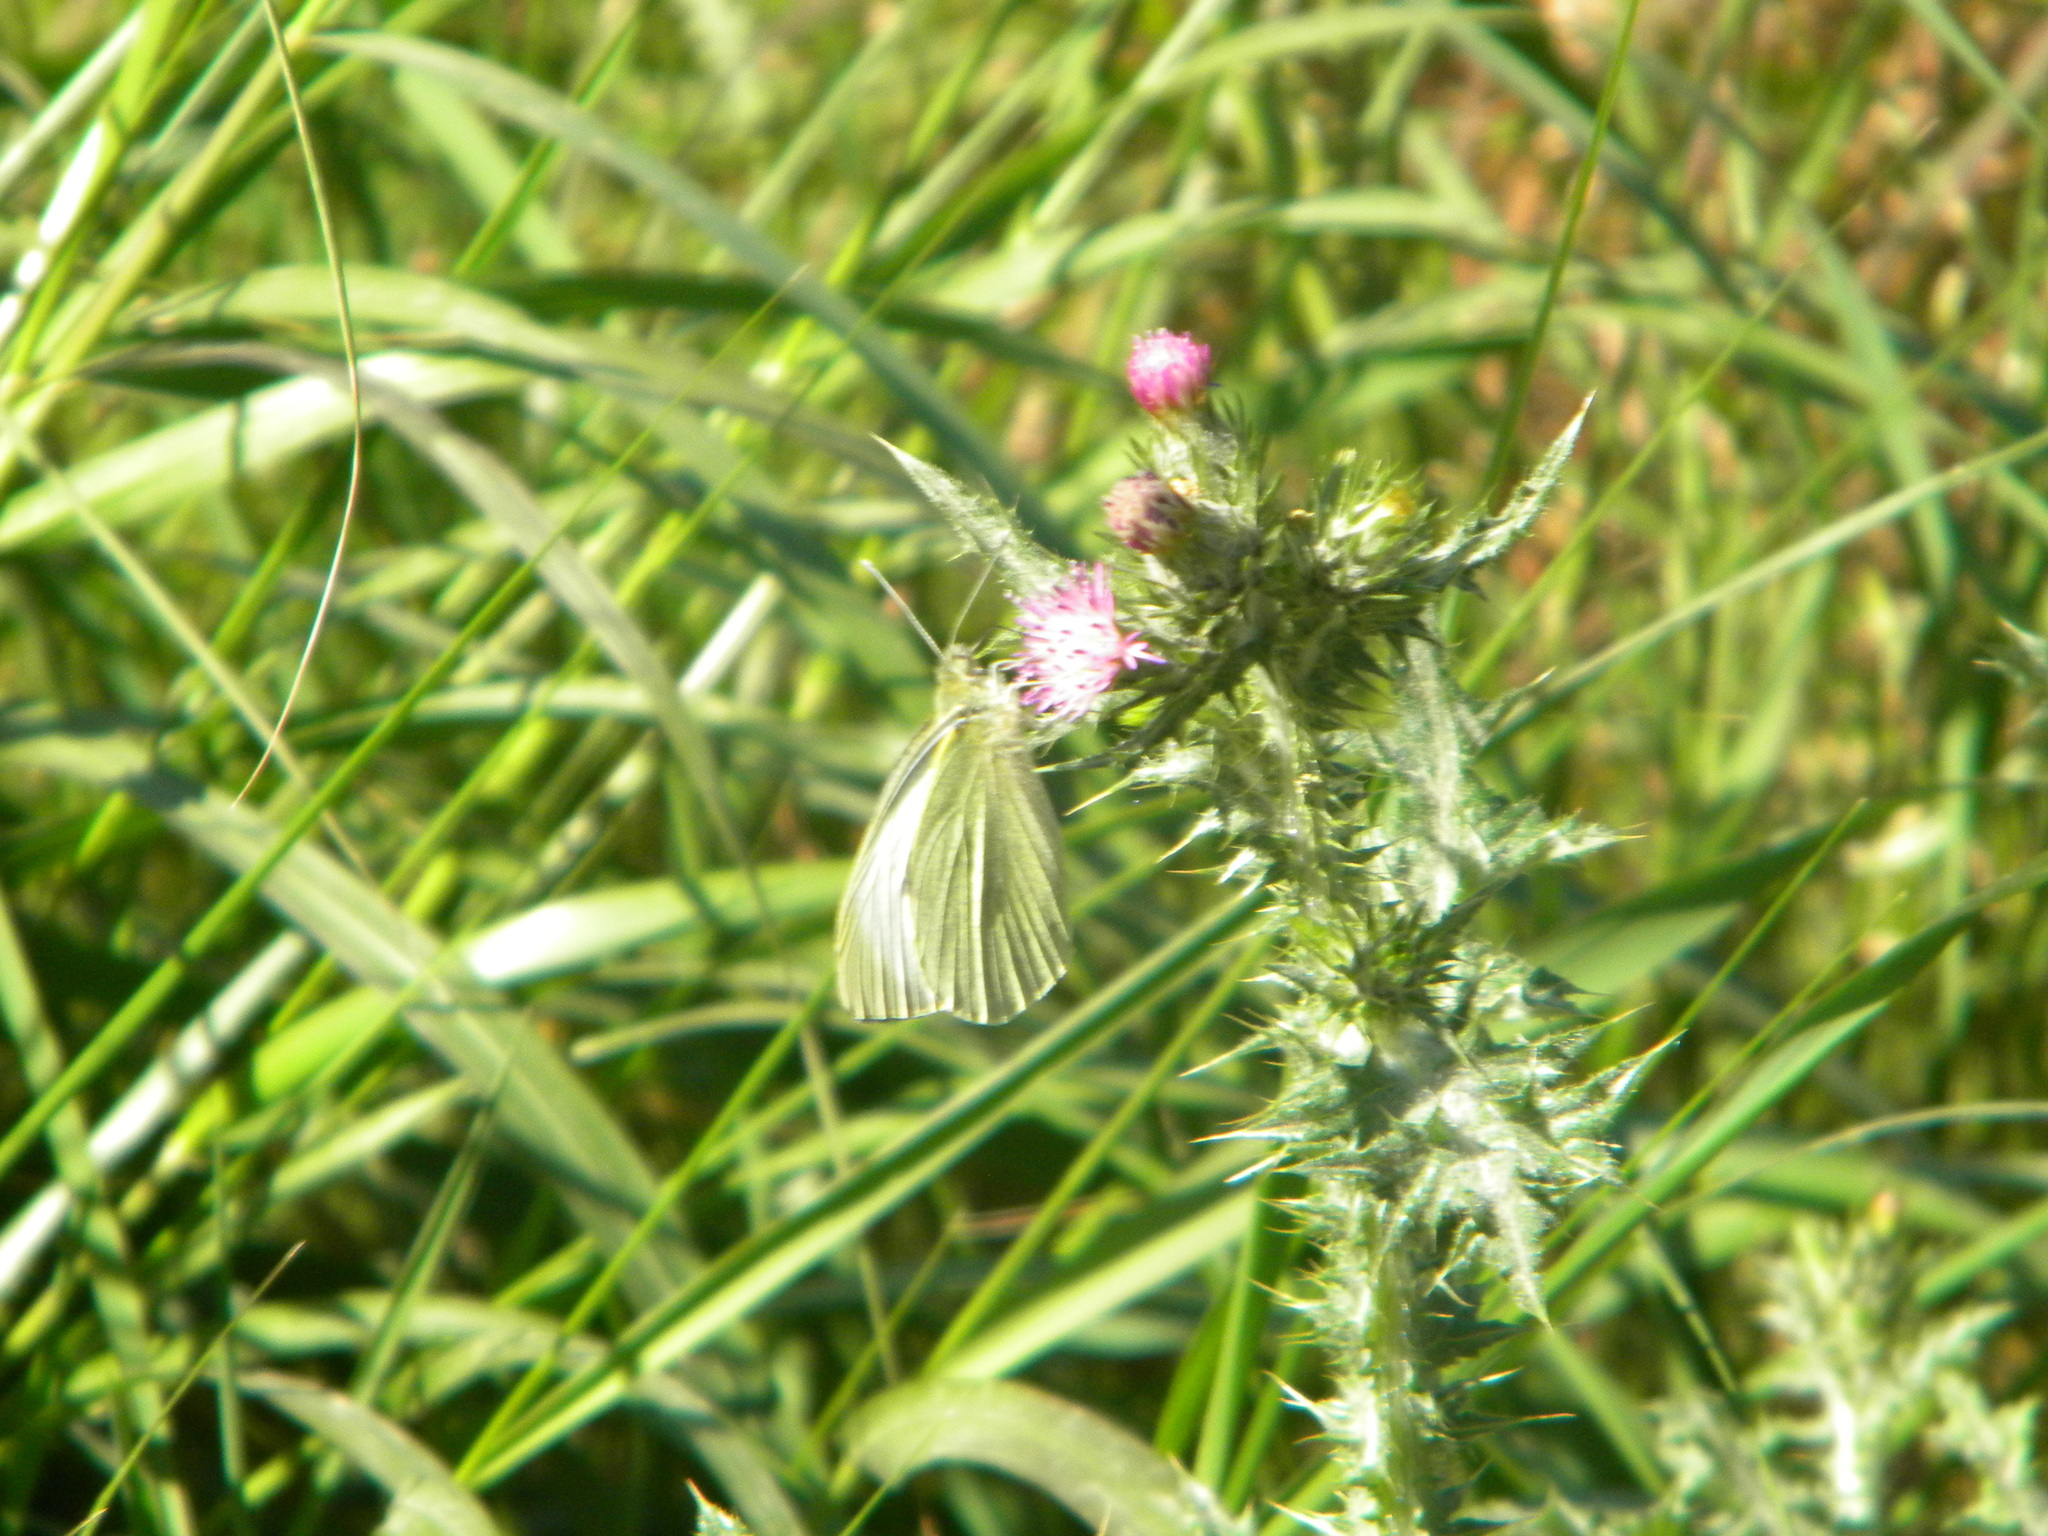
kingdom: Animalia
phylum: Arthropoda
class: Insecta
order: Lepidoptera
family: Pieridae
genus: Pieris
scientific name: Pieris brassicae
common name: Large white
